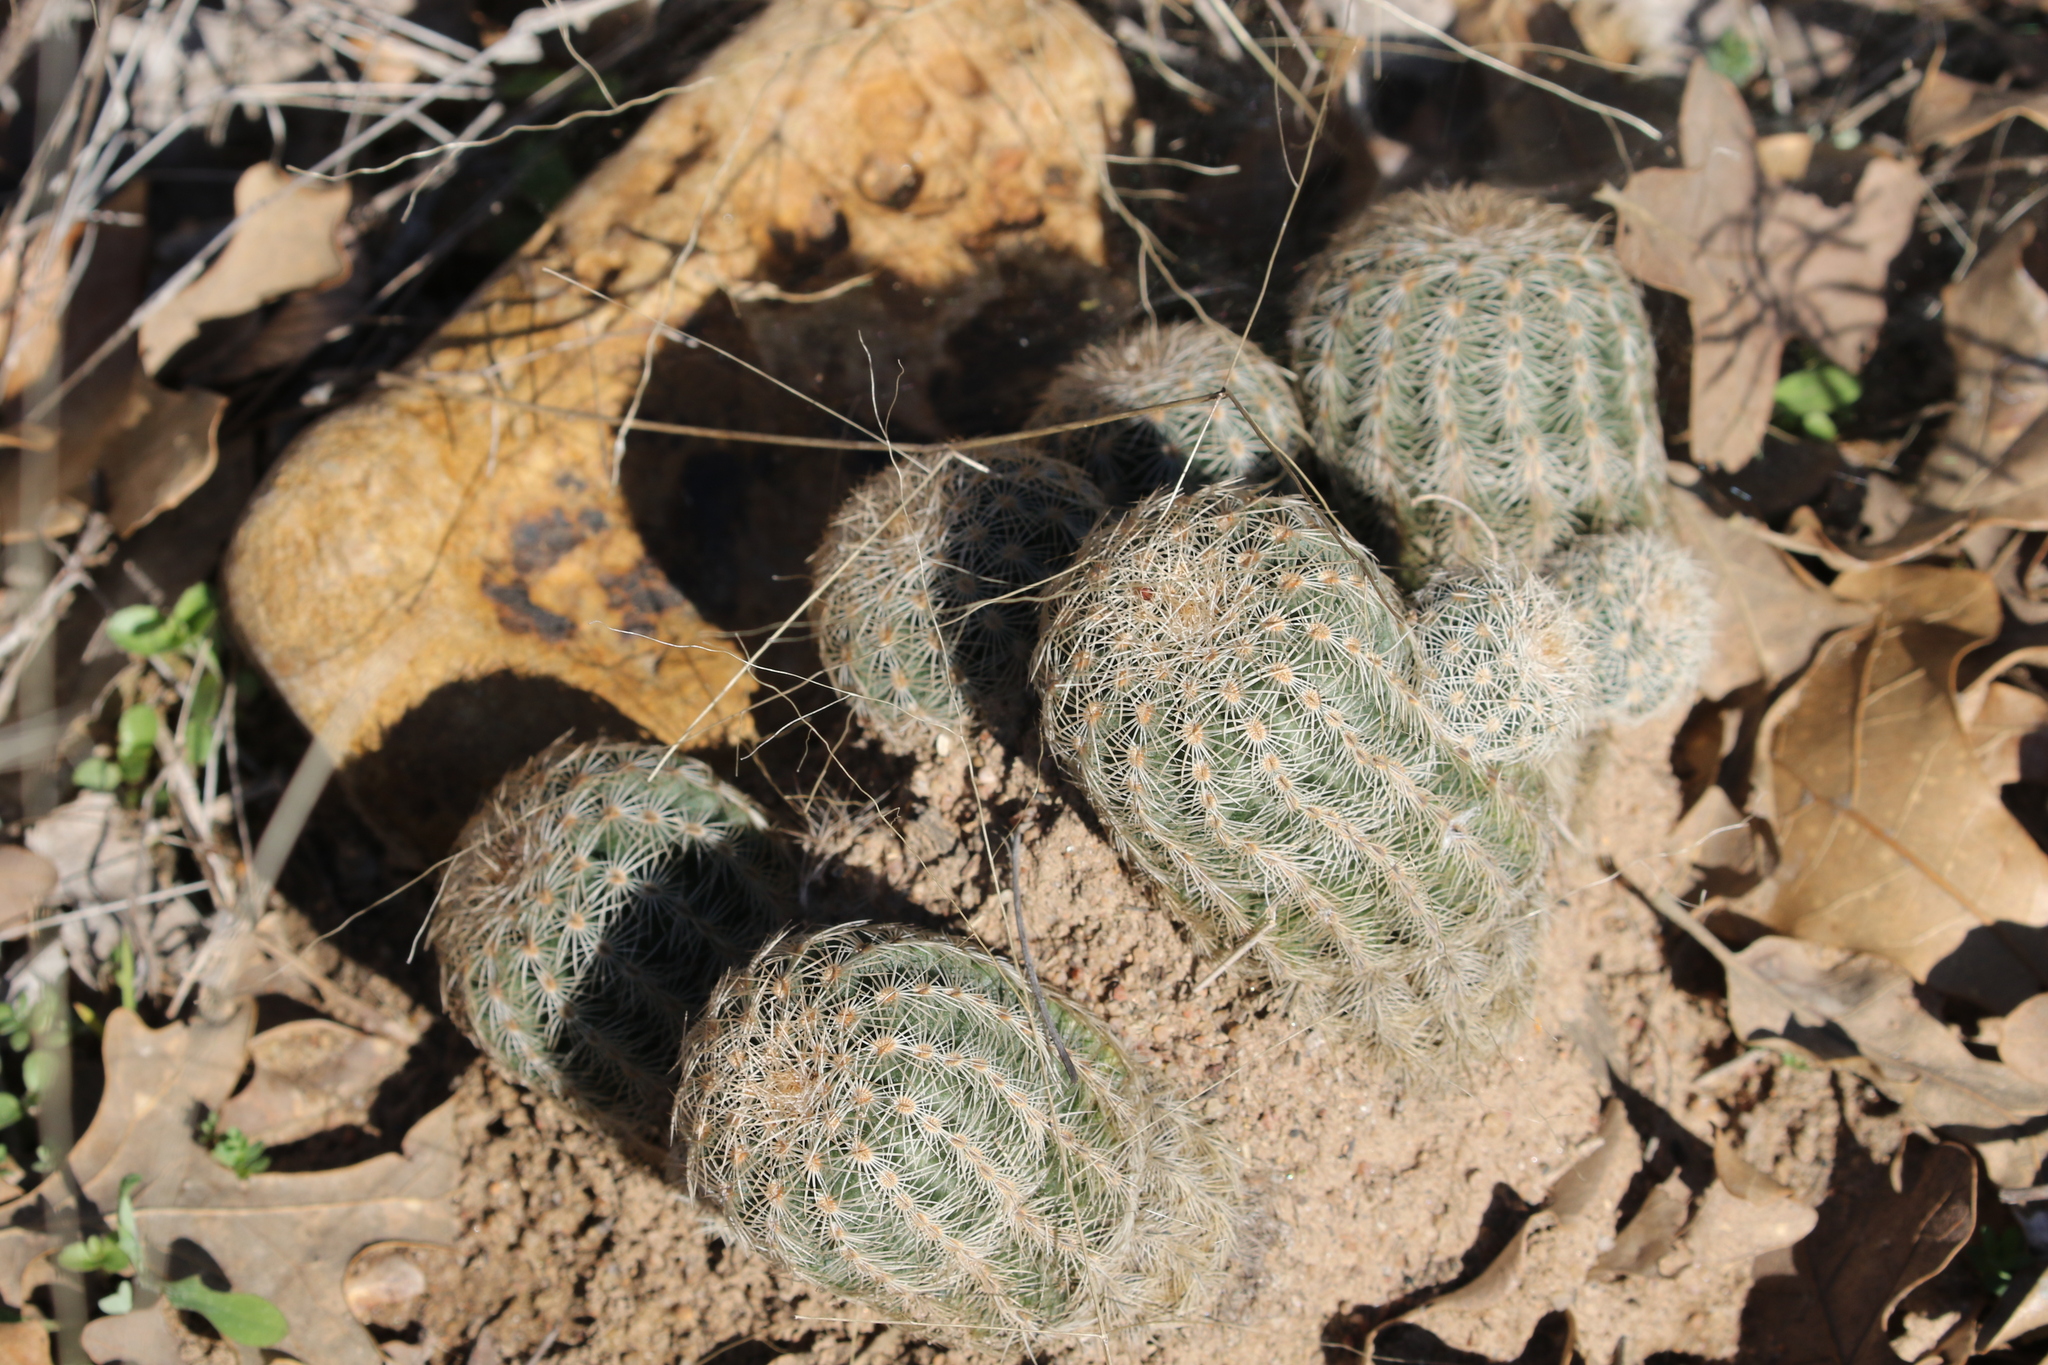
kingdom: Plantae
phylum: Tracheophyta
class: Magnoliopsida
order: Caryophyllales
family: Cactaceae
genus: Echinocereus
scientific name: Echinocereus reichenbachii
